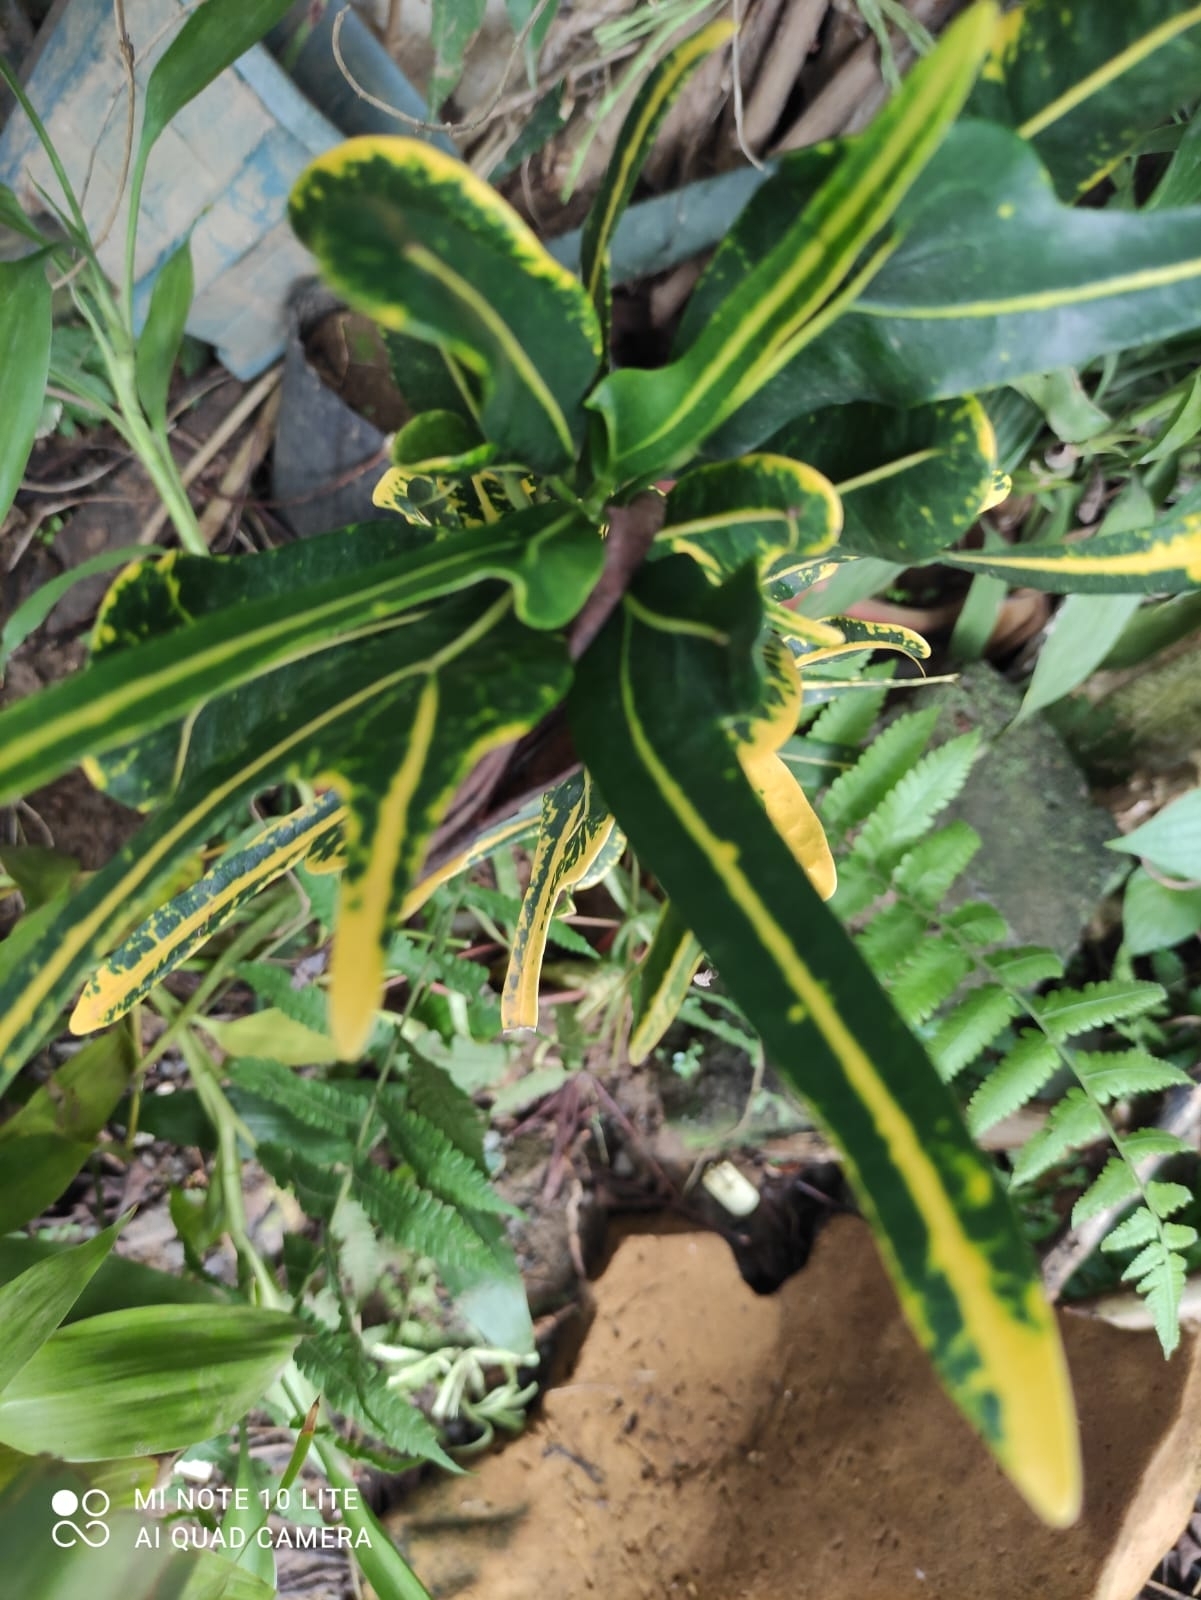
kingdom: Plantae
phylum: Tracheophyta
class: Magnoliopsida
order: Malpighiales
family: Euphorbiaceae
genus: Codiaeum
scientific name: Codiaeum variegatum
